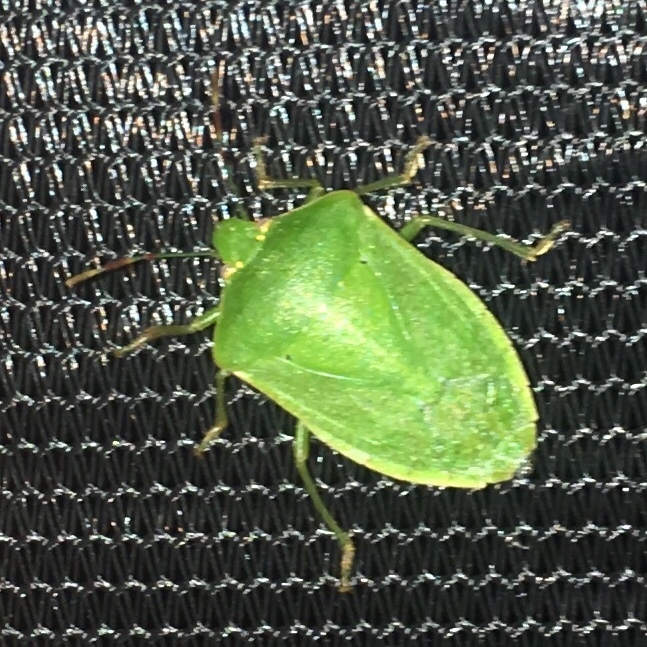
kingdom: Animalia
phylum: Arthropoda
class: Insecta
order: Hemiptera
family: Pentatomidae
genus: Nezara
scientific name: Nezara viridula
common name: Southern green stink bug
